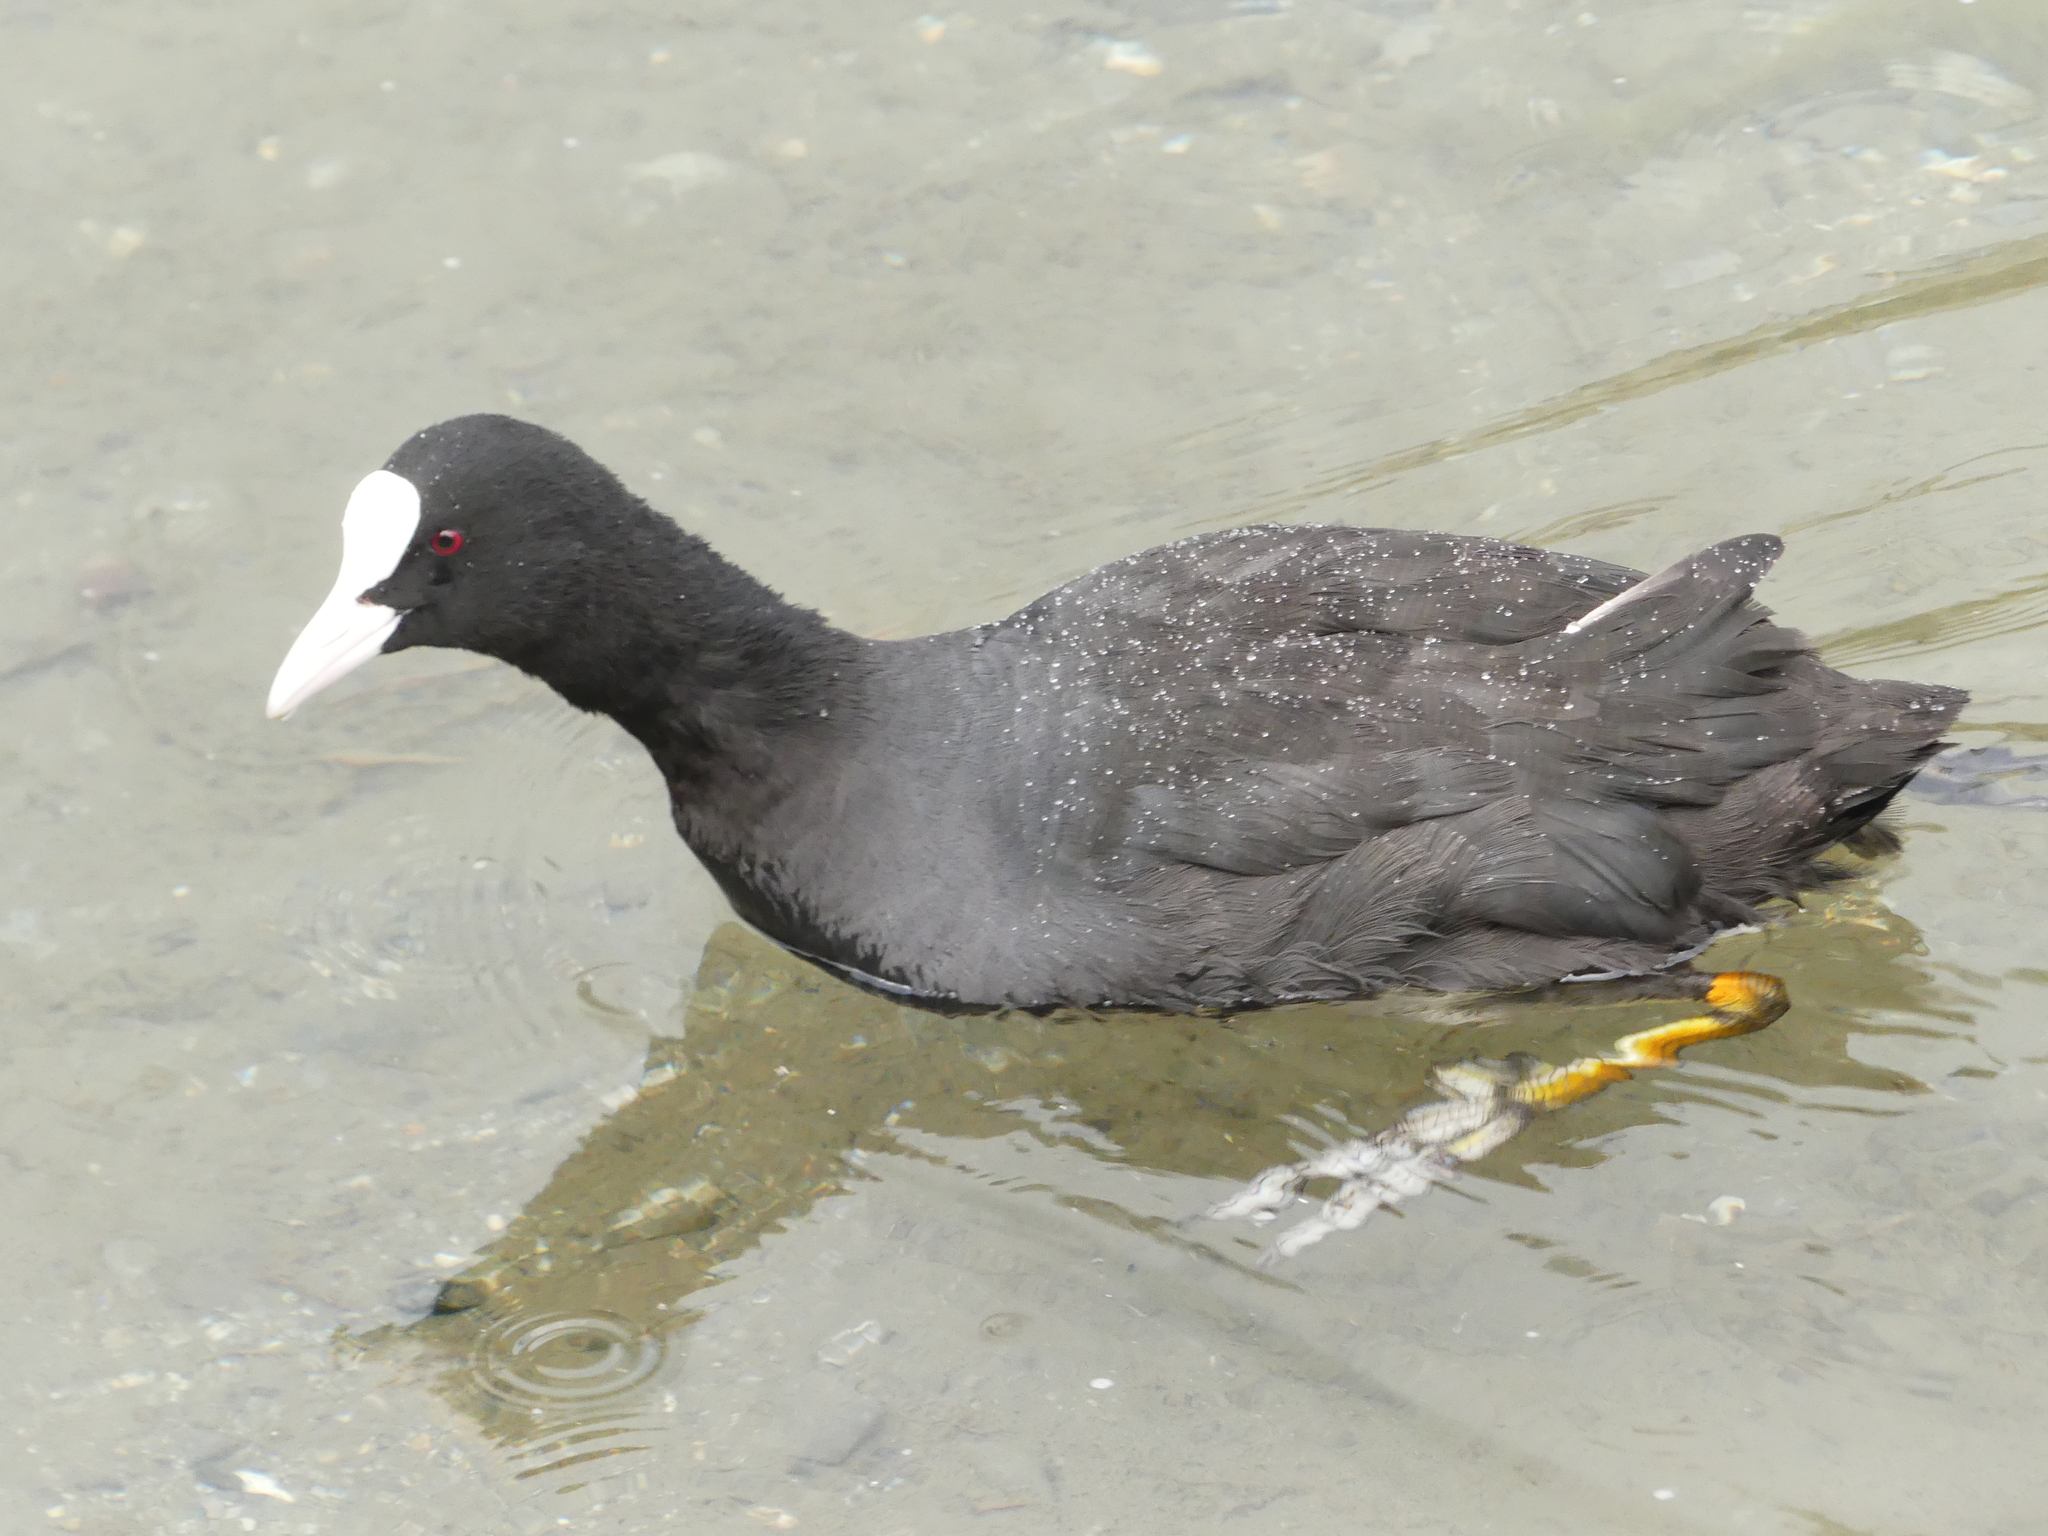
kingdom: Animalia
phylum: Chordata
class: Aves
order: Gruiformes
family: Rallidae
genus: Fulica
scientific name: Fulica atra
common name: Eurasian coot
